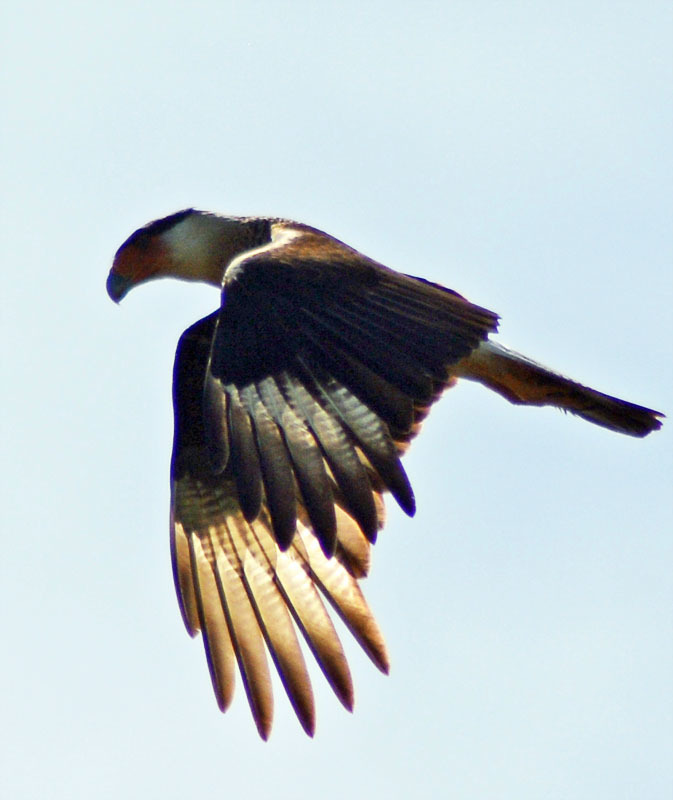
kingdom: Animalia
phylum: Chordata
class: Aves
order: Falconiformes
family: Falconidae
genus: Caracara
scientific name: Caracara plancus
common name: Southern caracara
